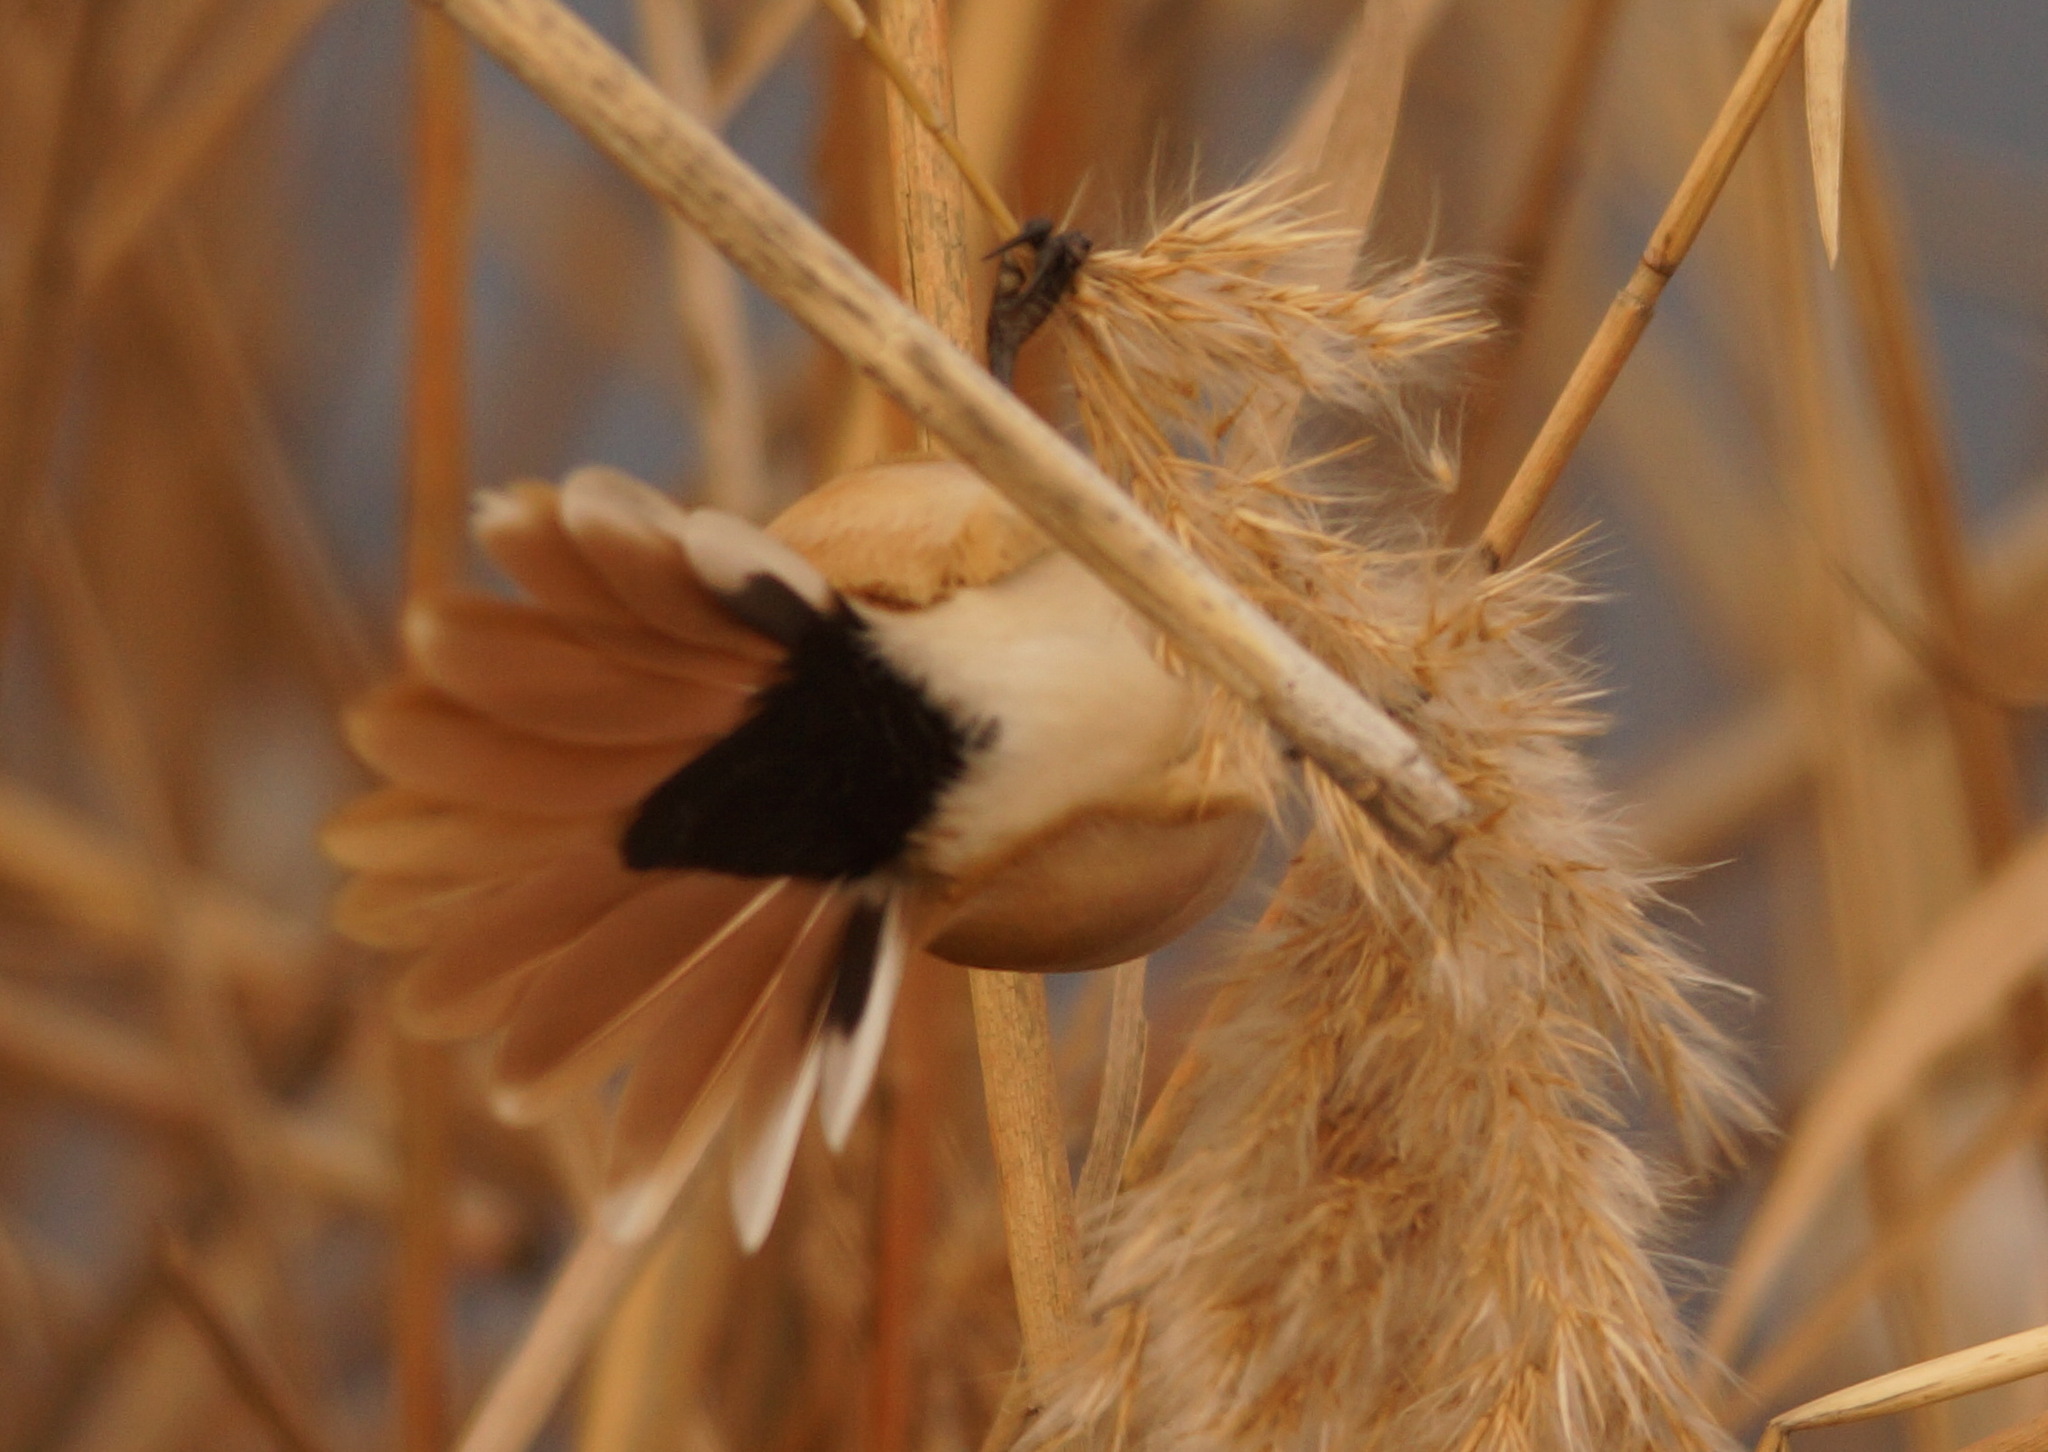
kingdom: Animalia
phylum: Chordata
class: Aves
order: Passeriformes
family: Panuridae
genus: Panurus
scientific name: Panurus biarmicus
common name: Bearded reedling
